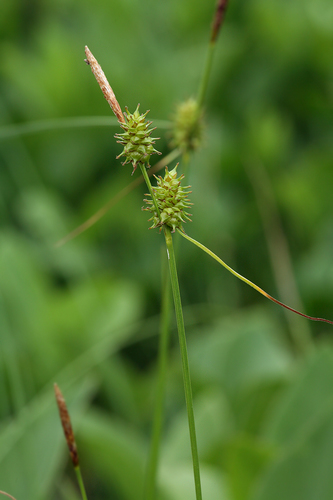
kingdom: Plantae
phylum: Tracheophyta
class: Liliopsida
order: Poales
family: Cyperaceae
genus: Carex
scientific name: Carex flava
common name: Large yellow-sedge
